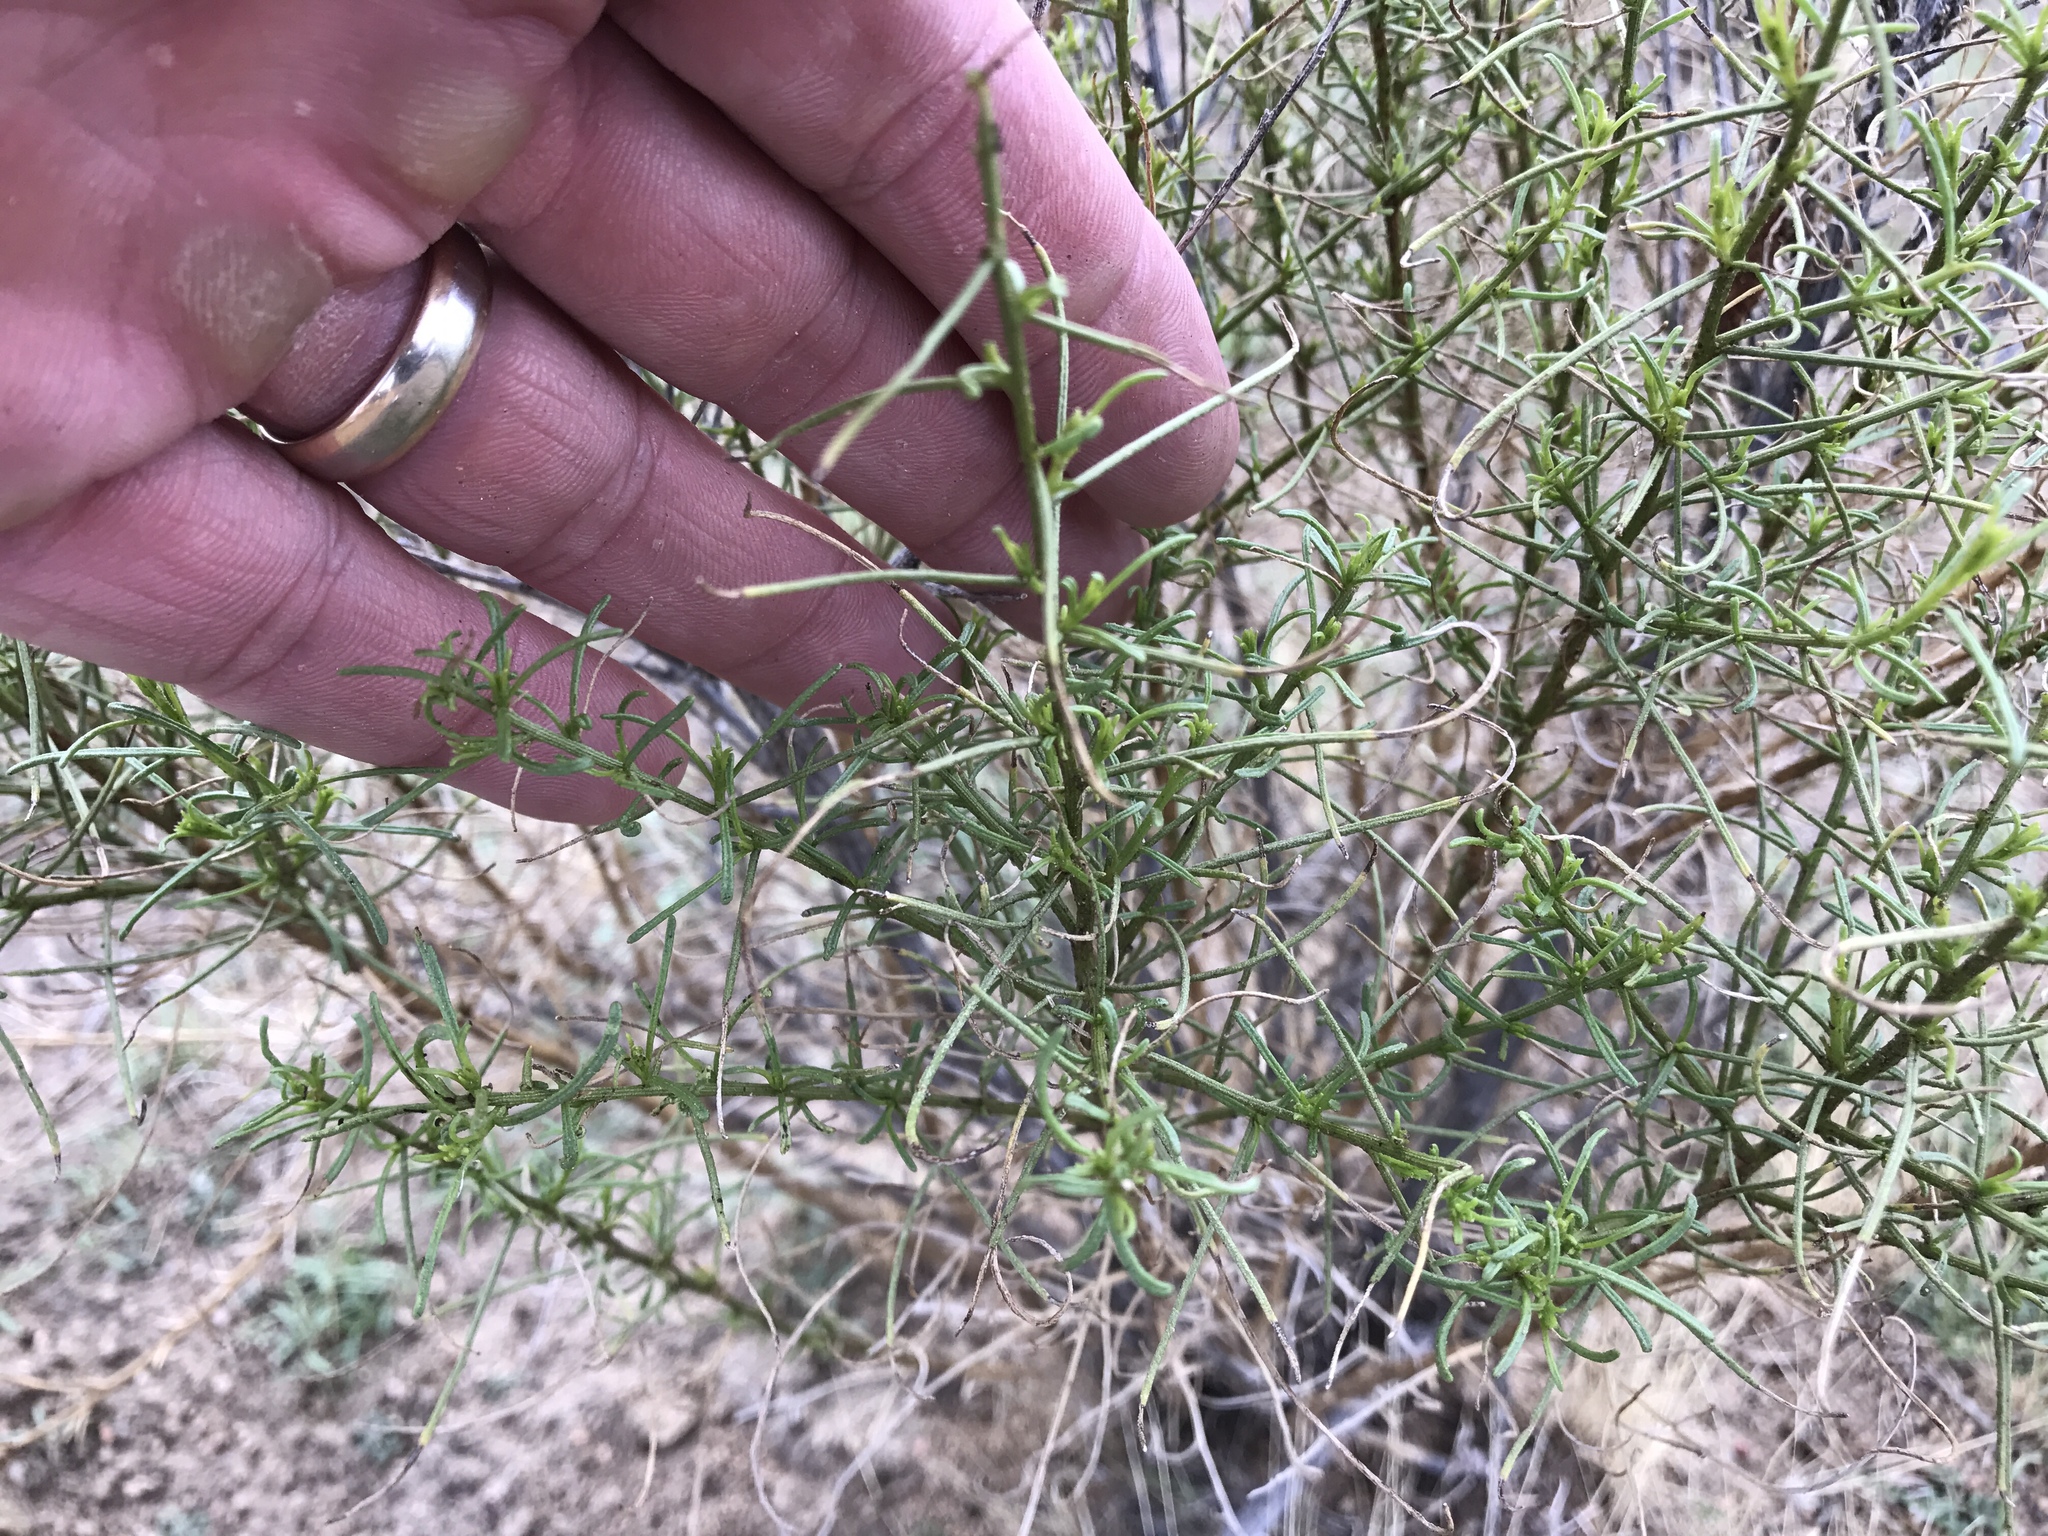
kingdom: Plantae
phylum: Tracheophyta
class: Magnoliopsida
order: Asterales
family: Asteraceae
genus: Ambrosia
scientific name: Ambrosia salsola
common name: Burrobrush
